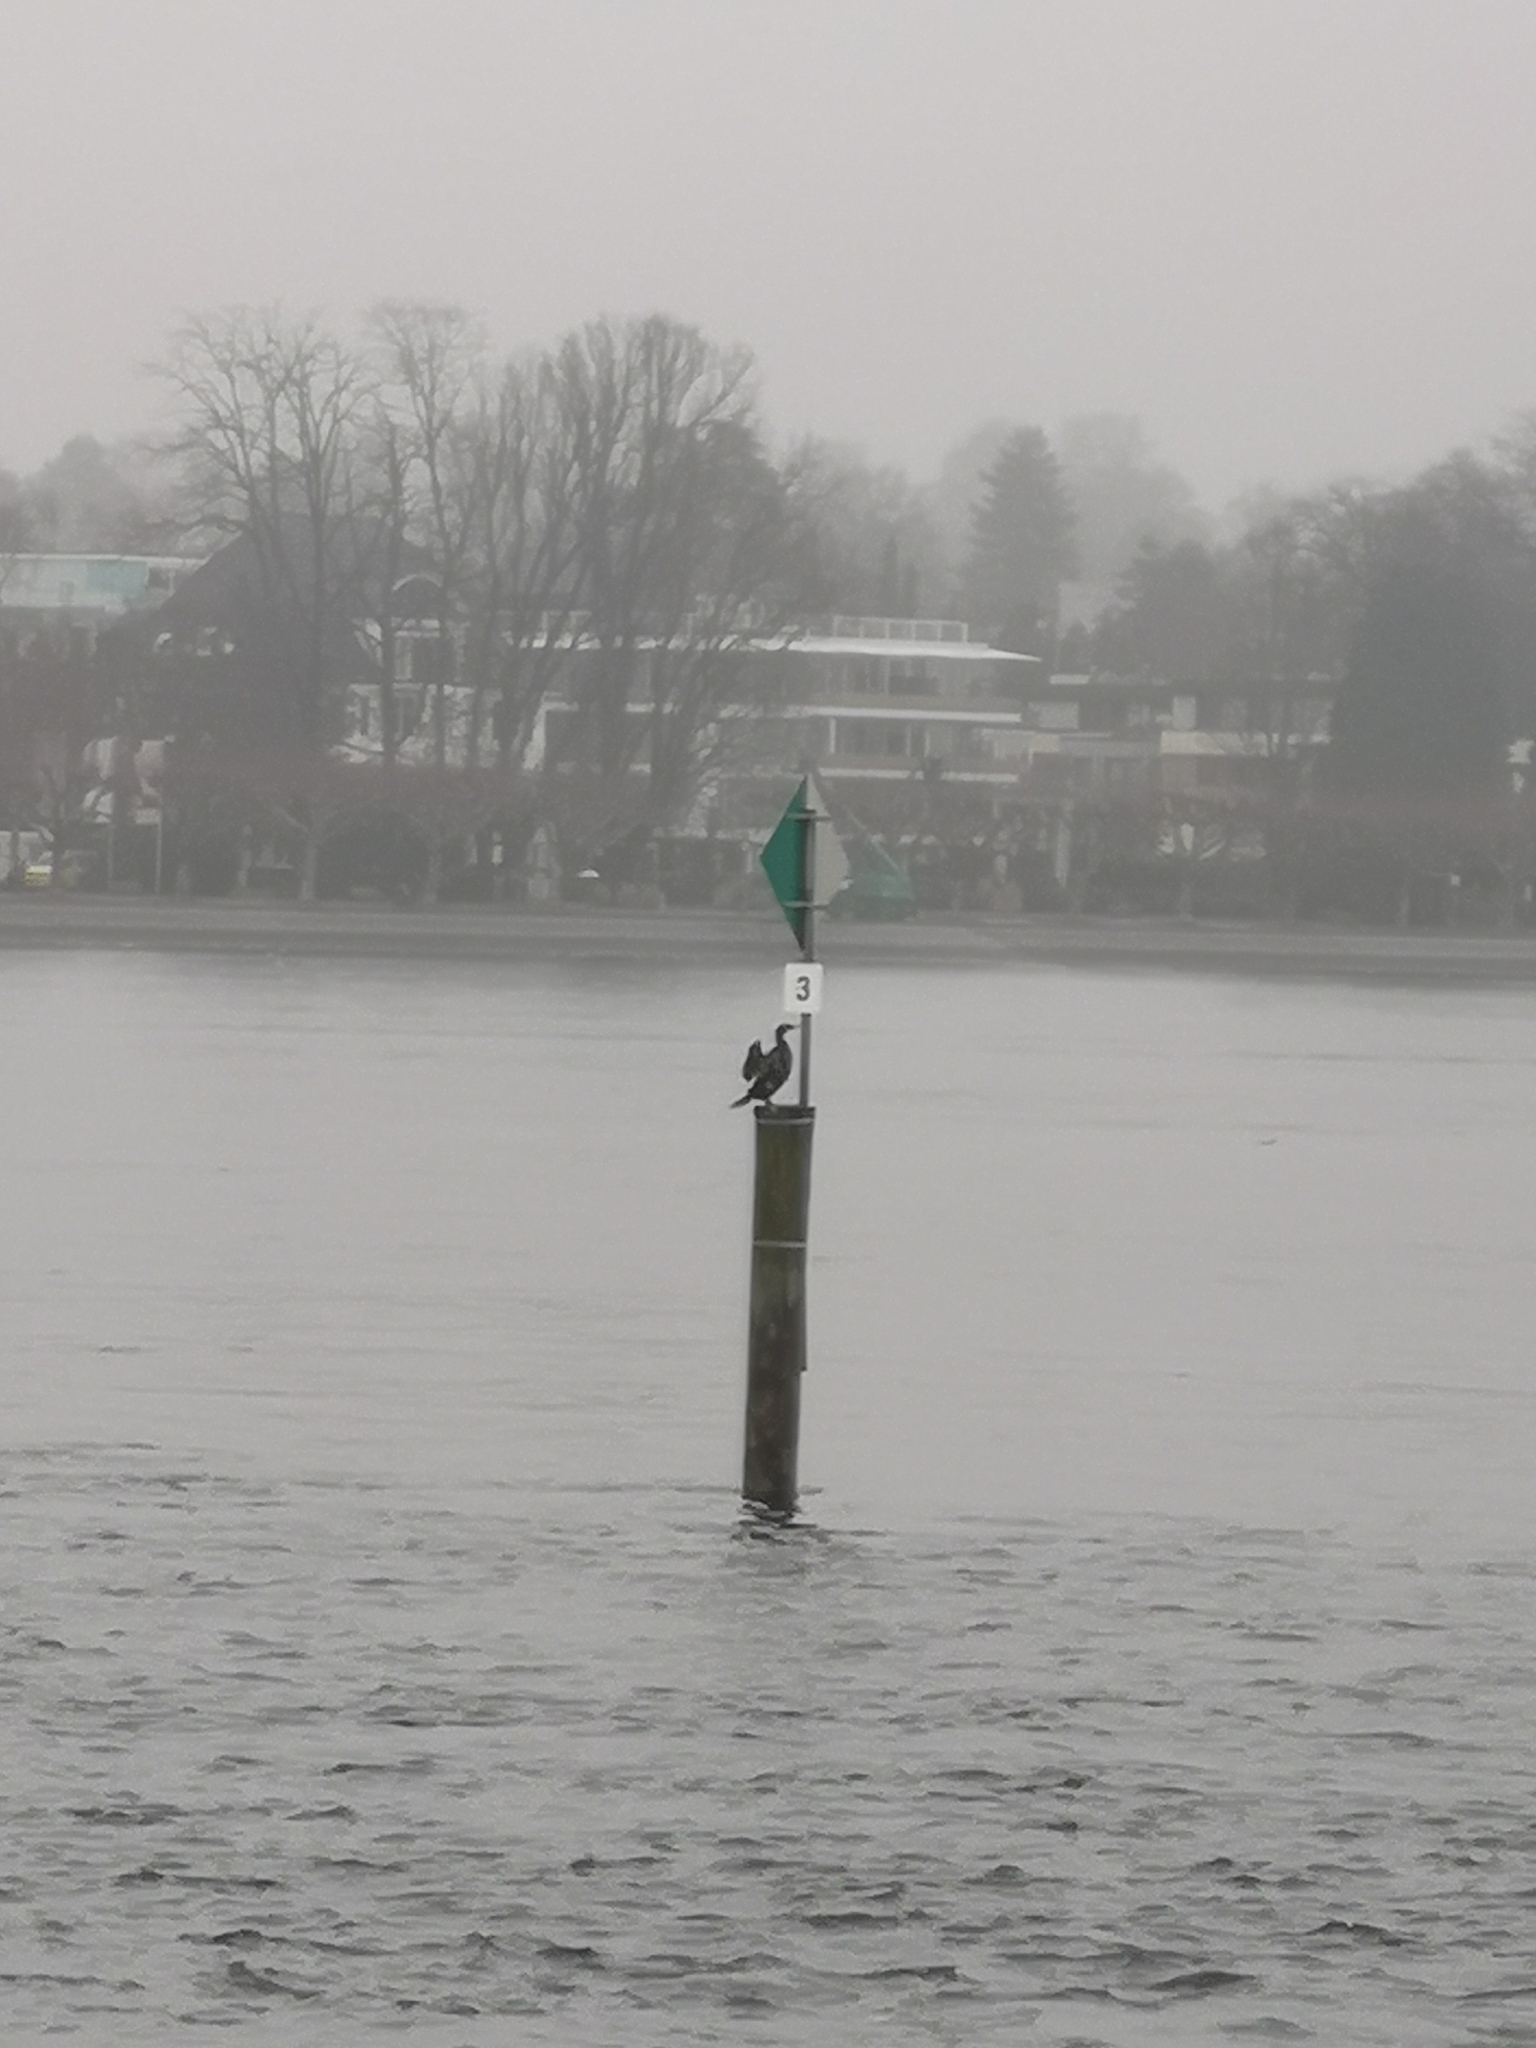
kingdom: Animalia
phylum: Chordata
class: Aves
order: Suliformes
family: Phalacrocoracidae
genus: Phalacrocorax
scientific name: Phalacrocorax carbo
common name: Great cormorant
